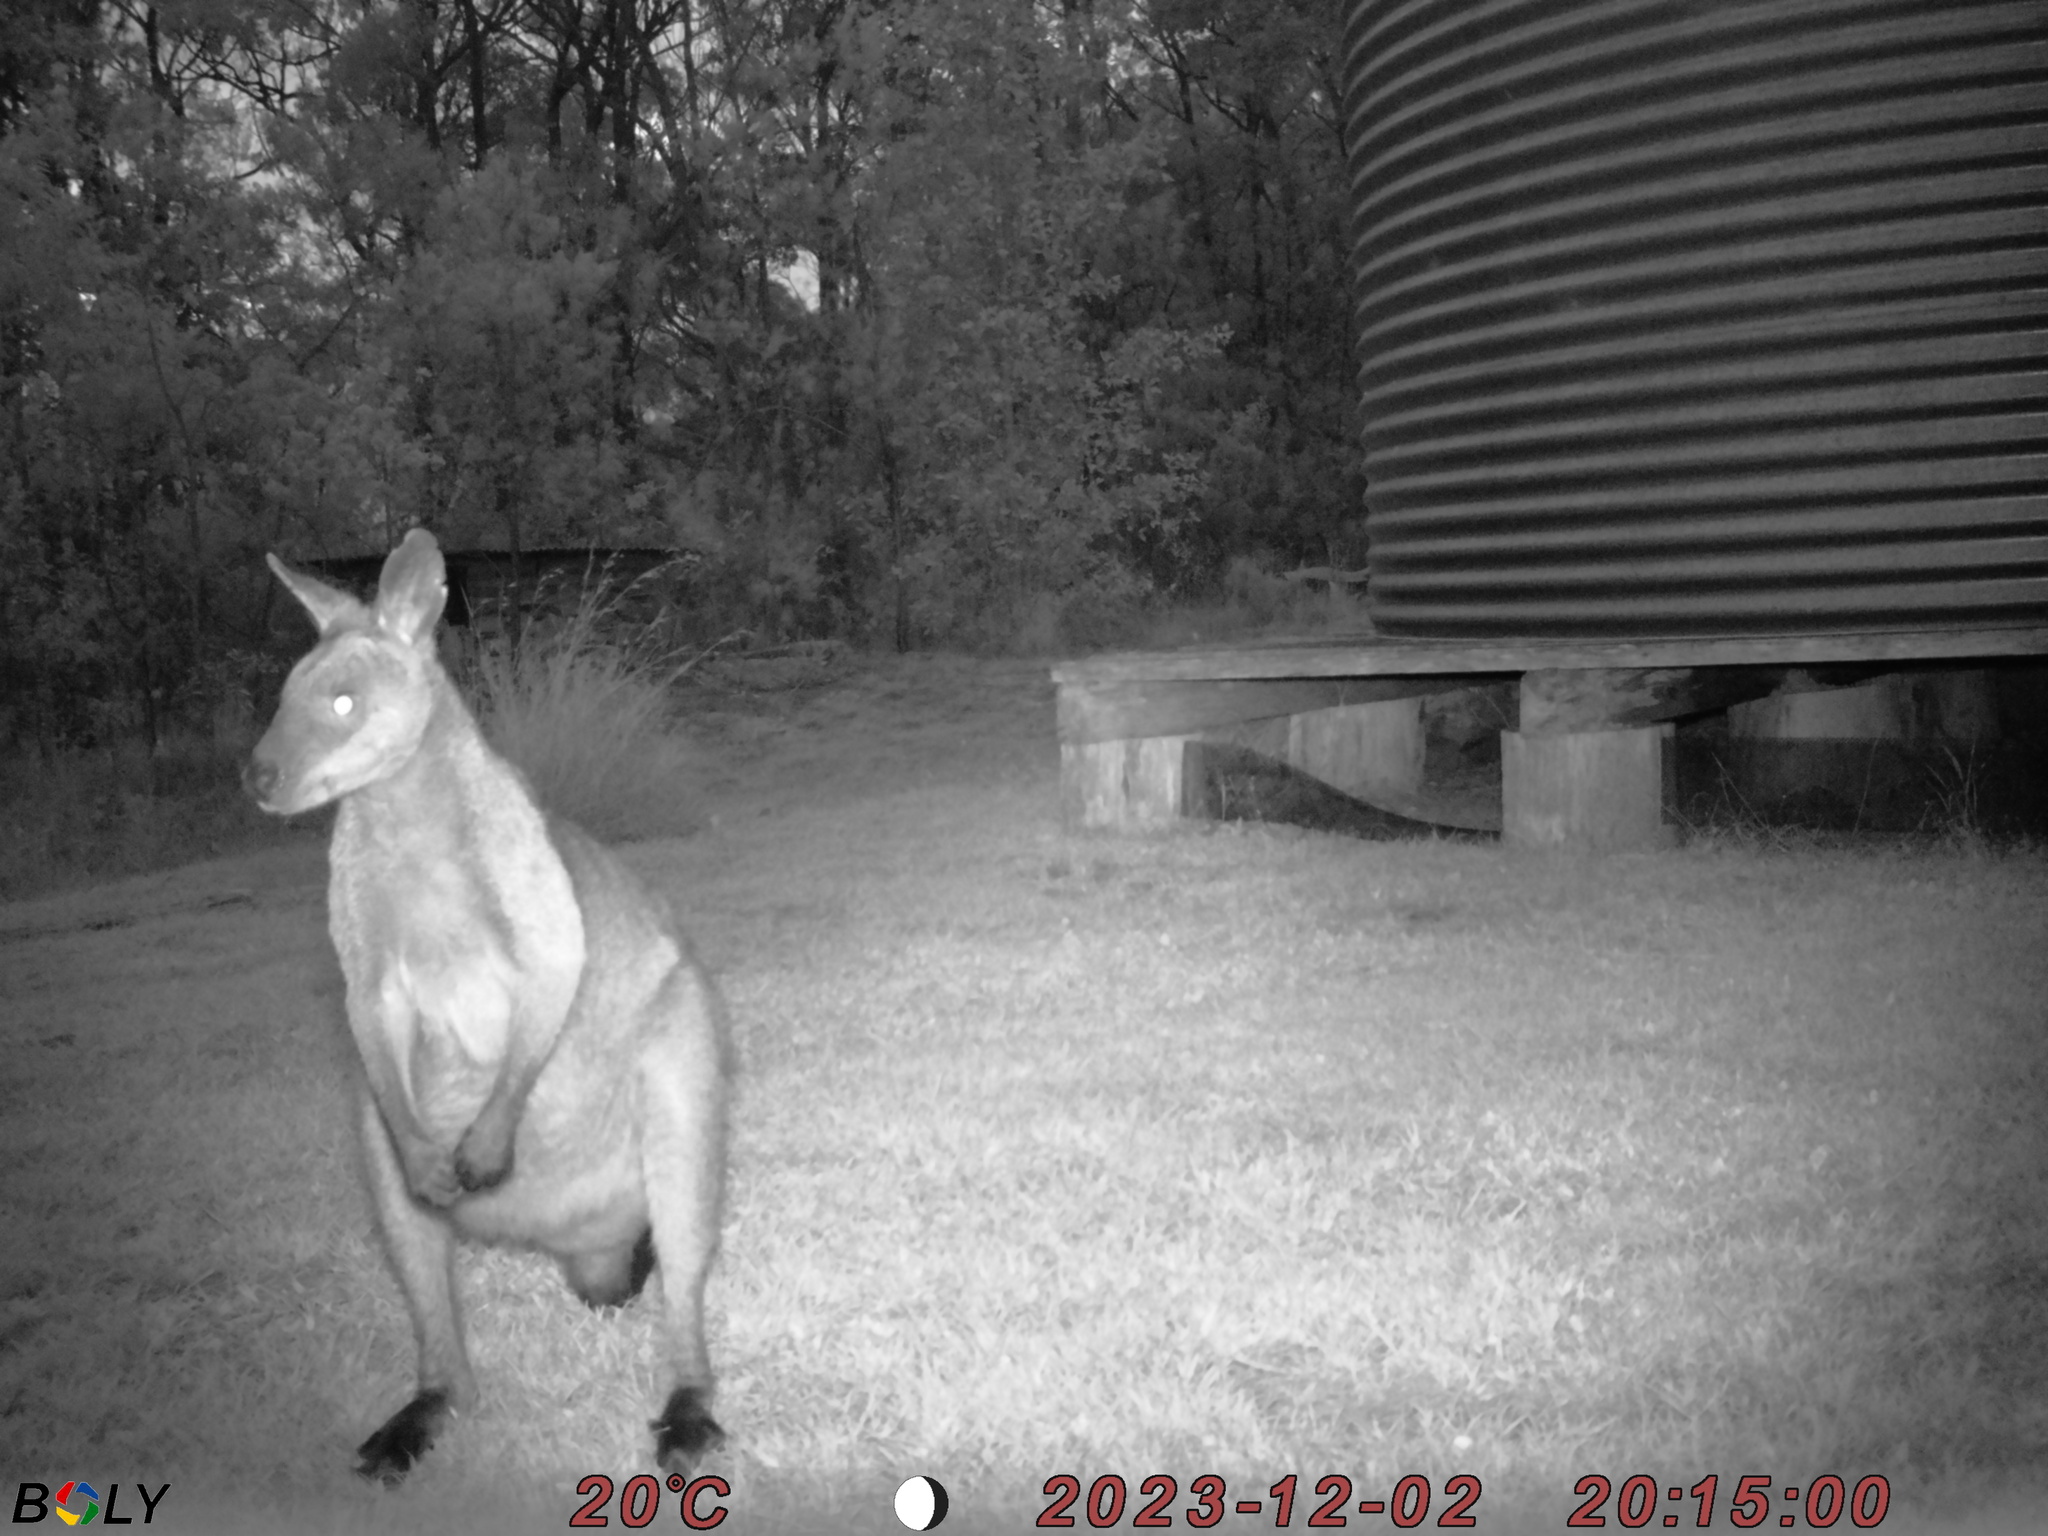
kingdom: Animalia
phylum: Chordata
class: Mammalia
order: Diprotodontia
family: Macropodidae
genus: Wallabia
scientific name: Wallabia bicolor
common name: Swamp wallaby
